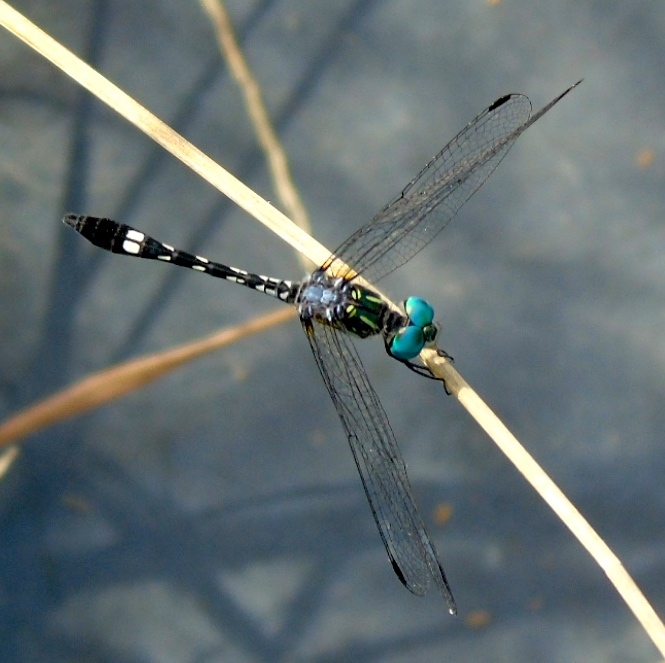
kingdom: Animalia
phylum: Arthropoda
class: Insecta
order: Odonata
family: Libellulidae
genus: Micrathyria
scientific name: Micrathyria hagenii
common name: Thornbush dasher
